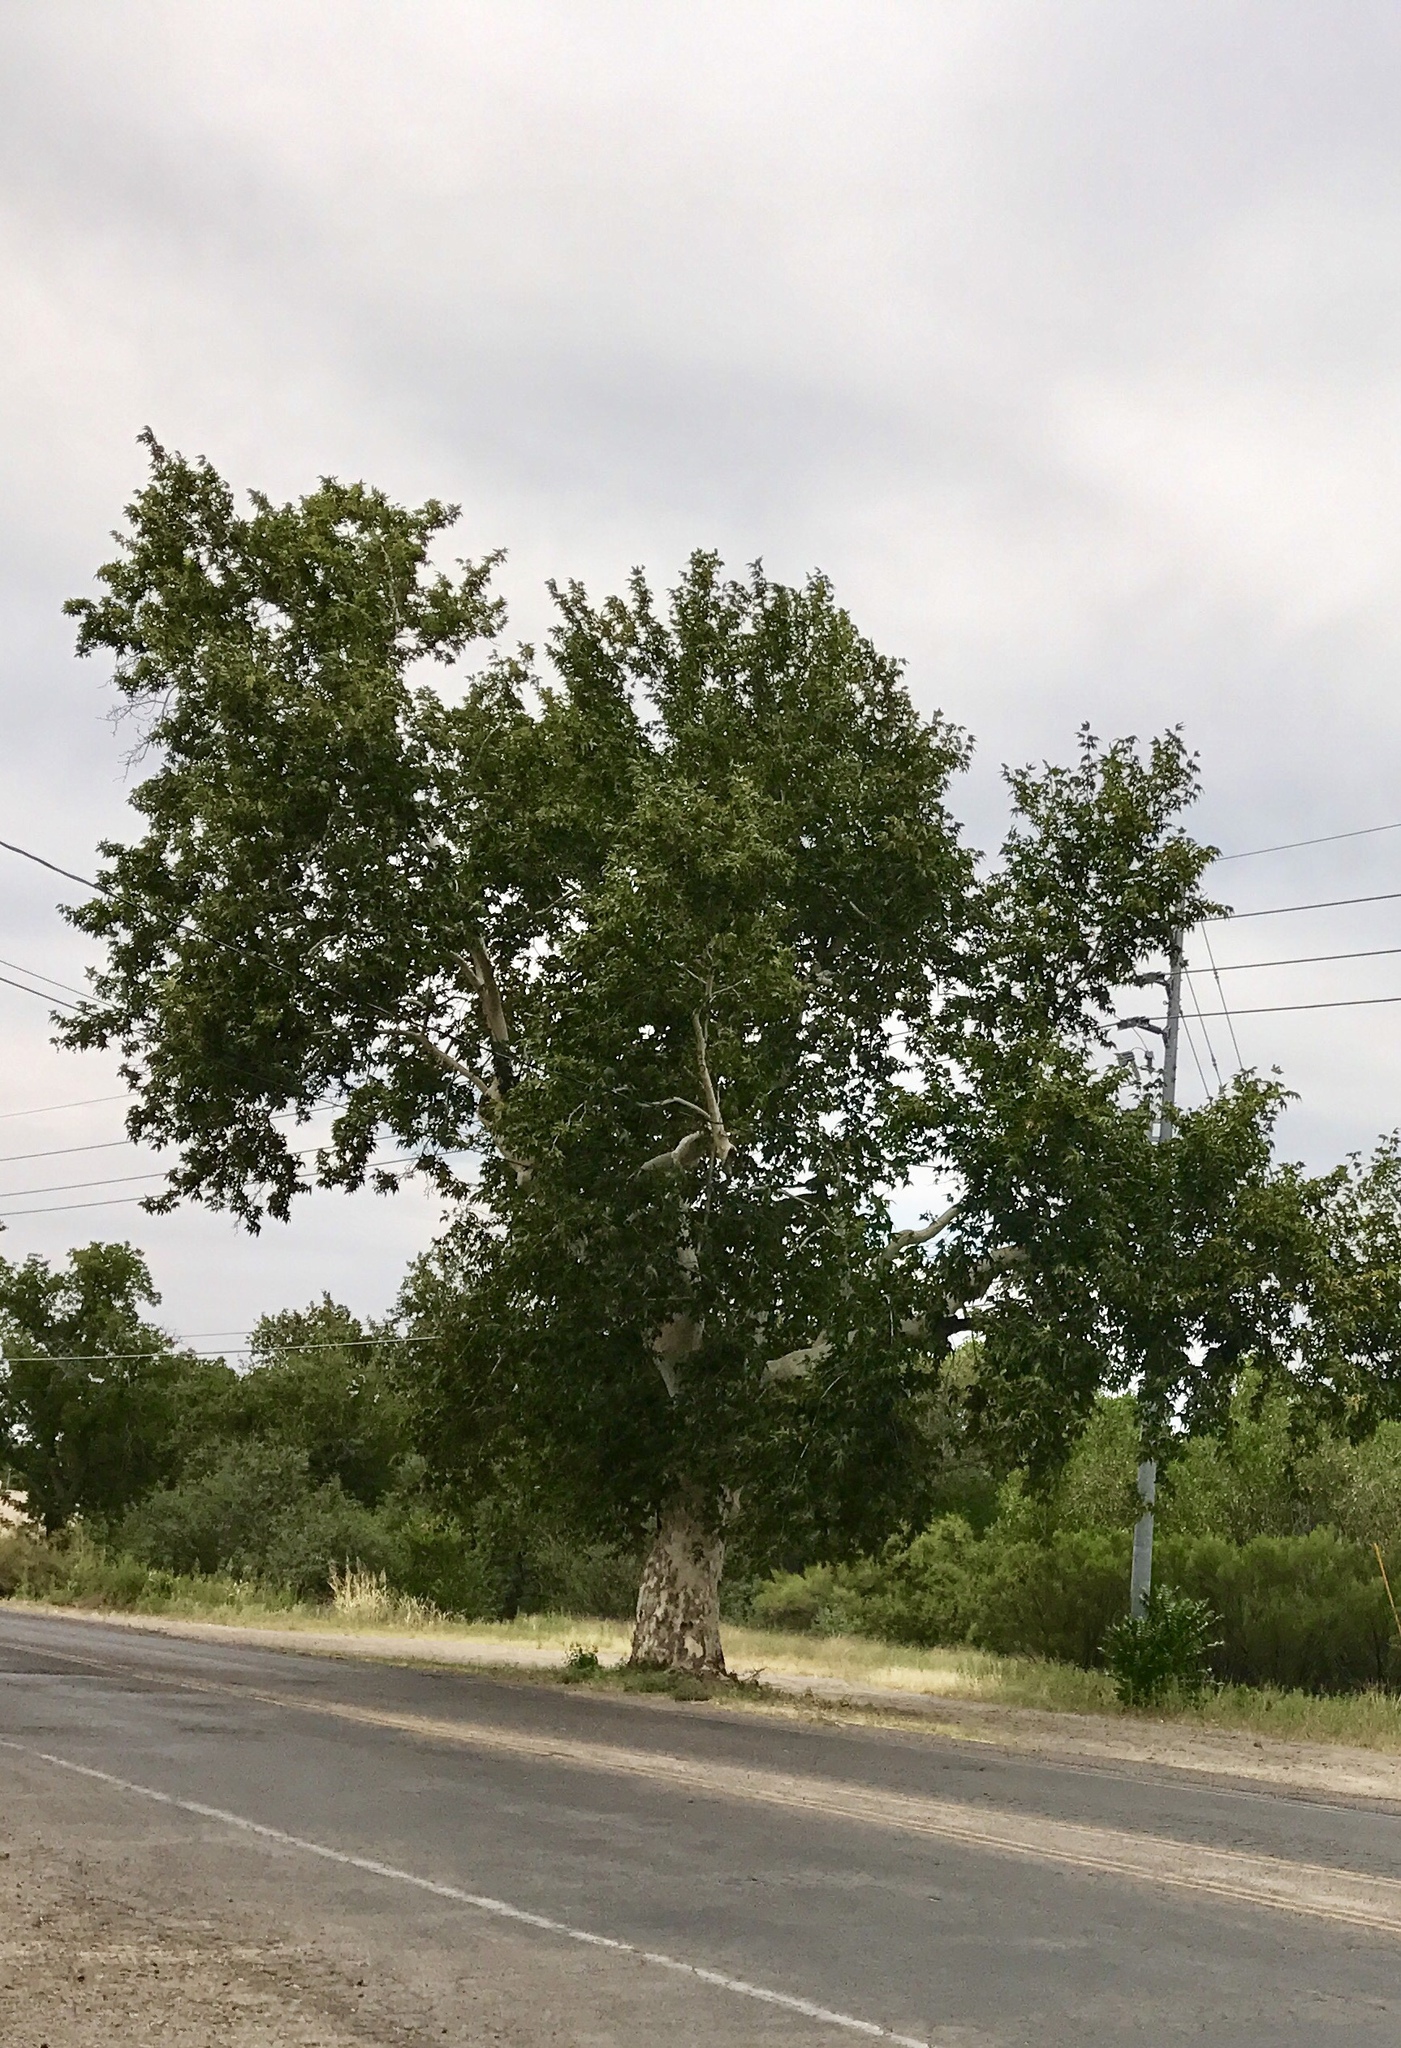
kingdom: Plantae
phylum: Tracheophyta
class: Magnoliopsida
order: Proteales
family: Platanaceae
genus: Platanus
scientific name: Platanus wrightii
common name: Arizona sycamore
